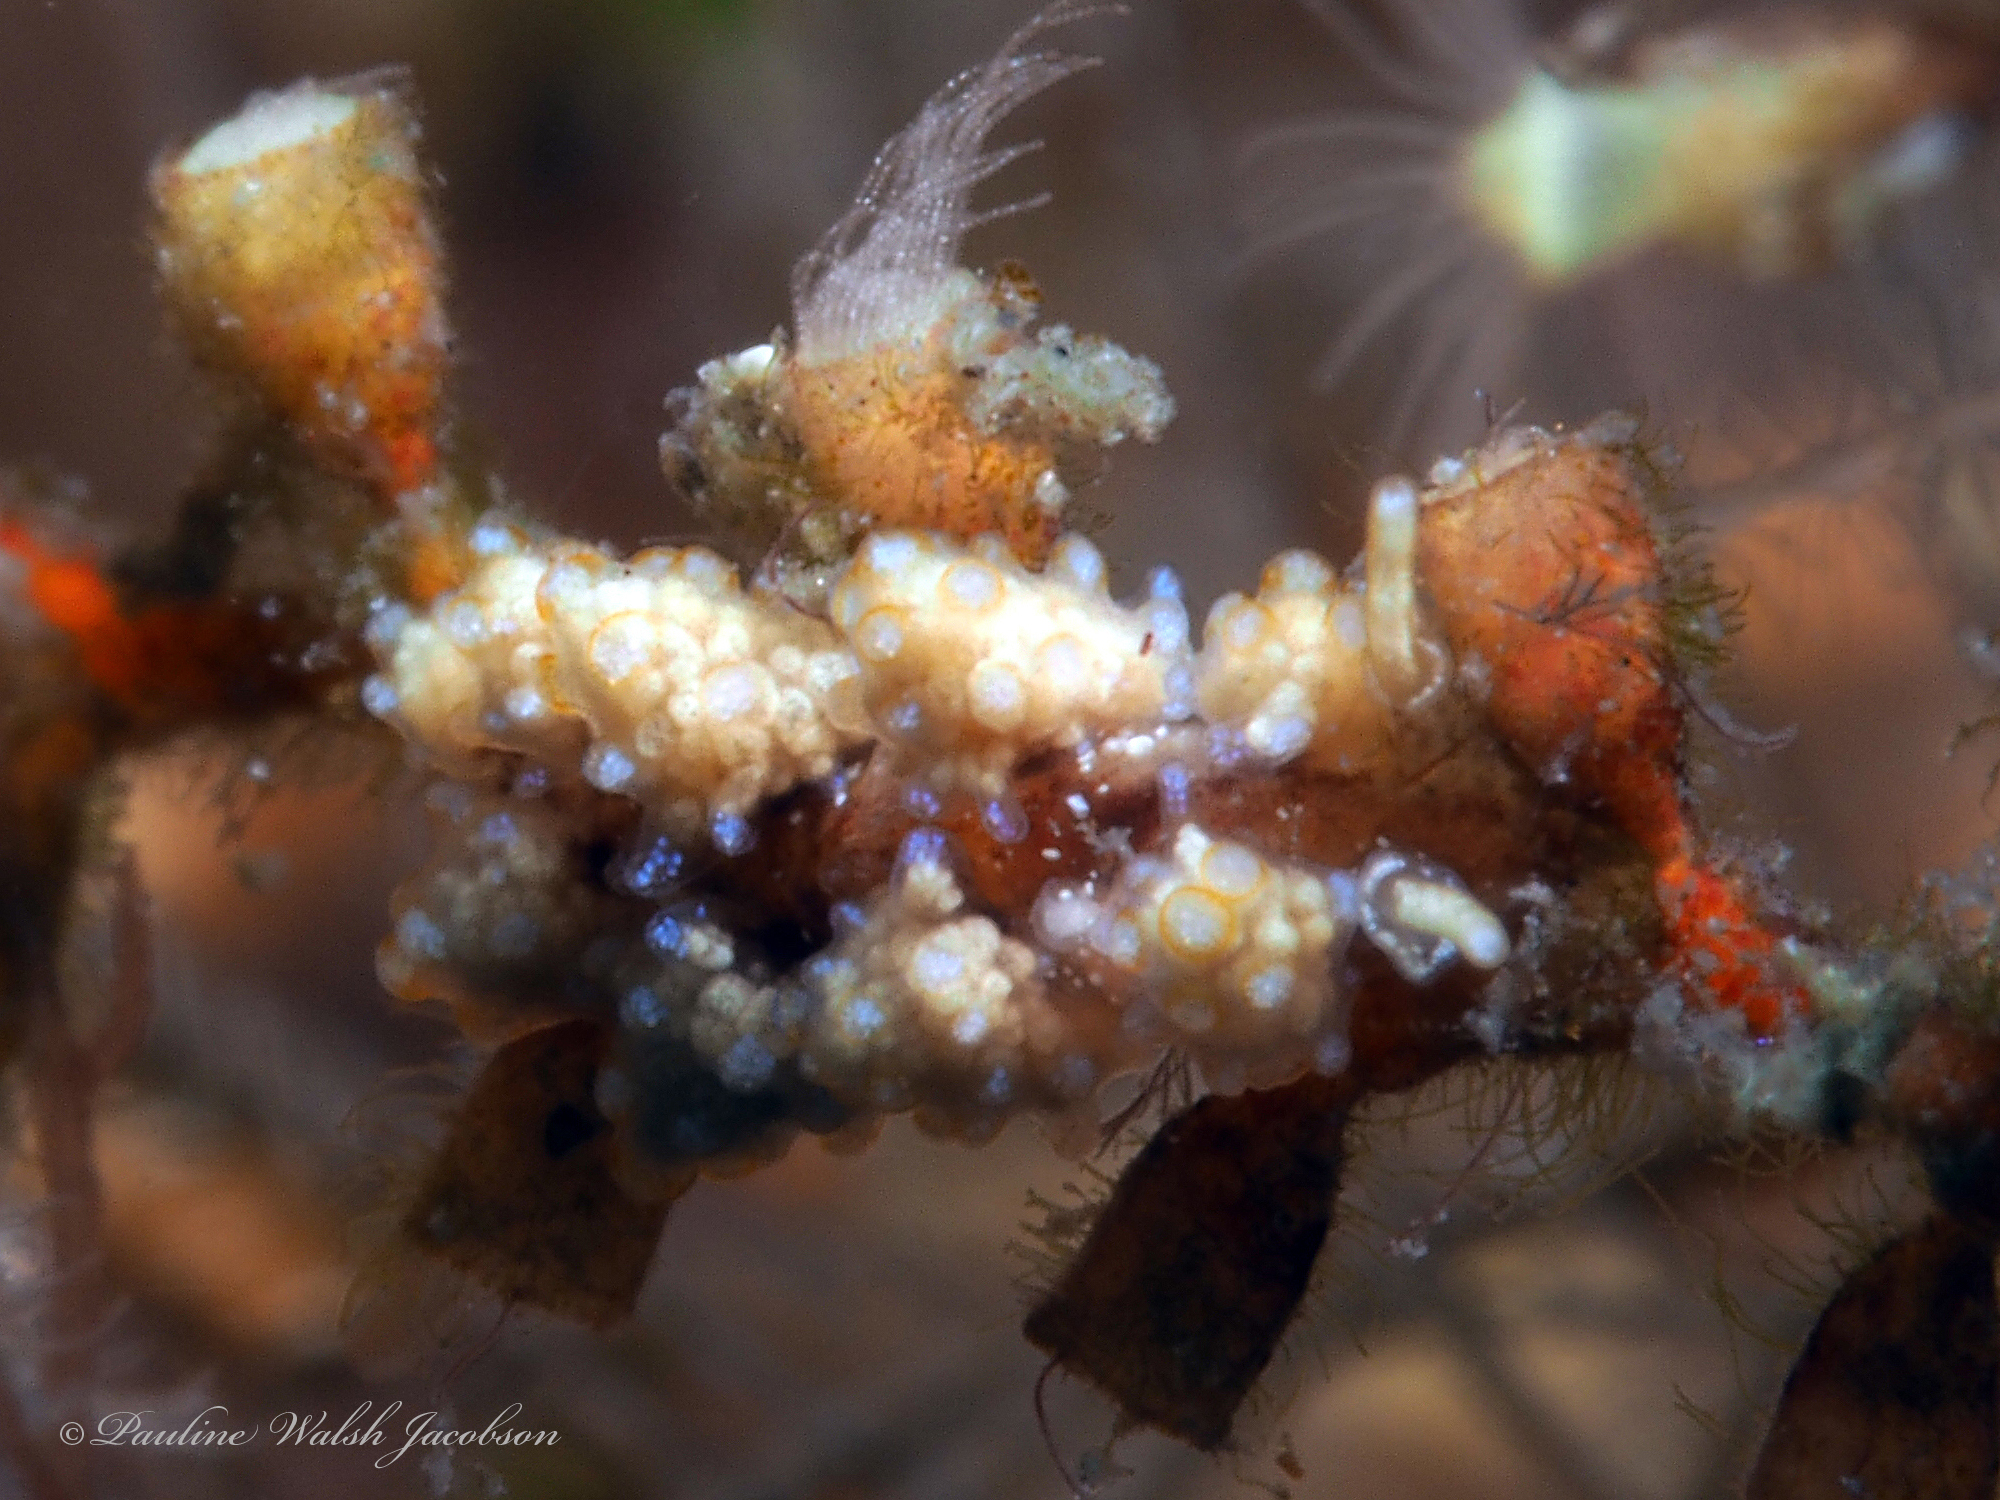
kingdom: Animalia
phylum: Mollusca
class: Gastropoda
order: Nudibranchia
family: Dotidae
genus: Doto
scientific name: Doto torrelavega
